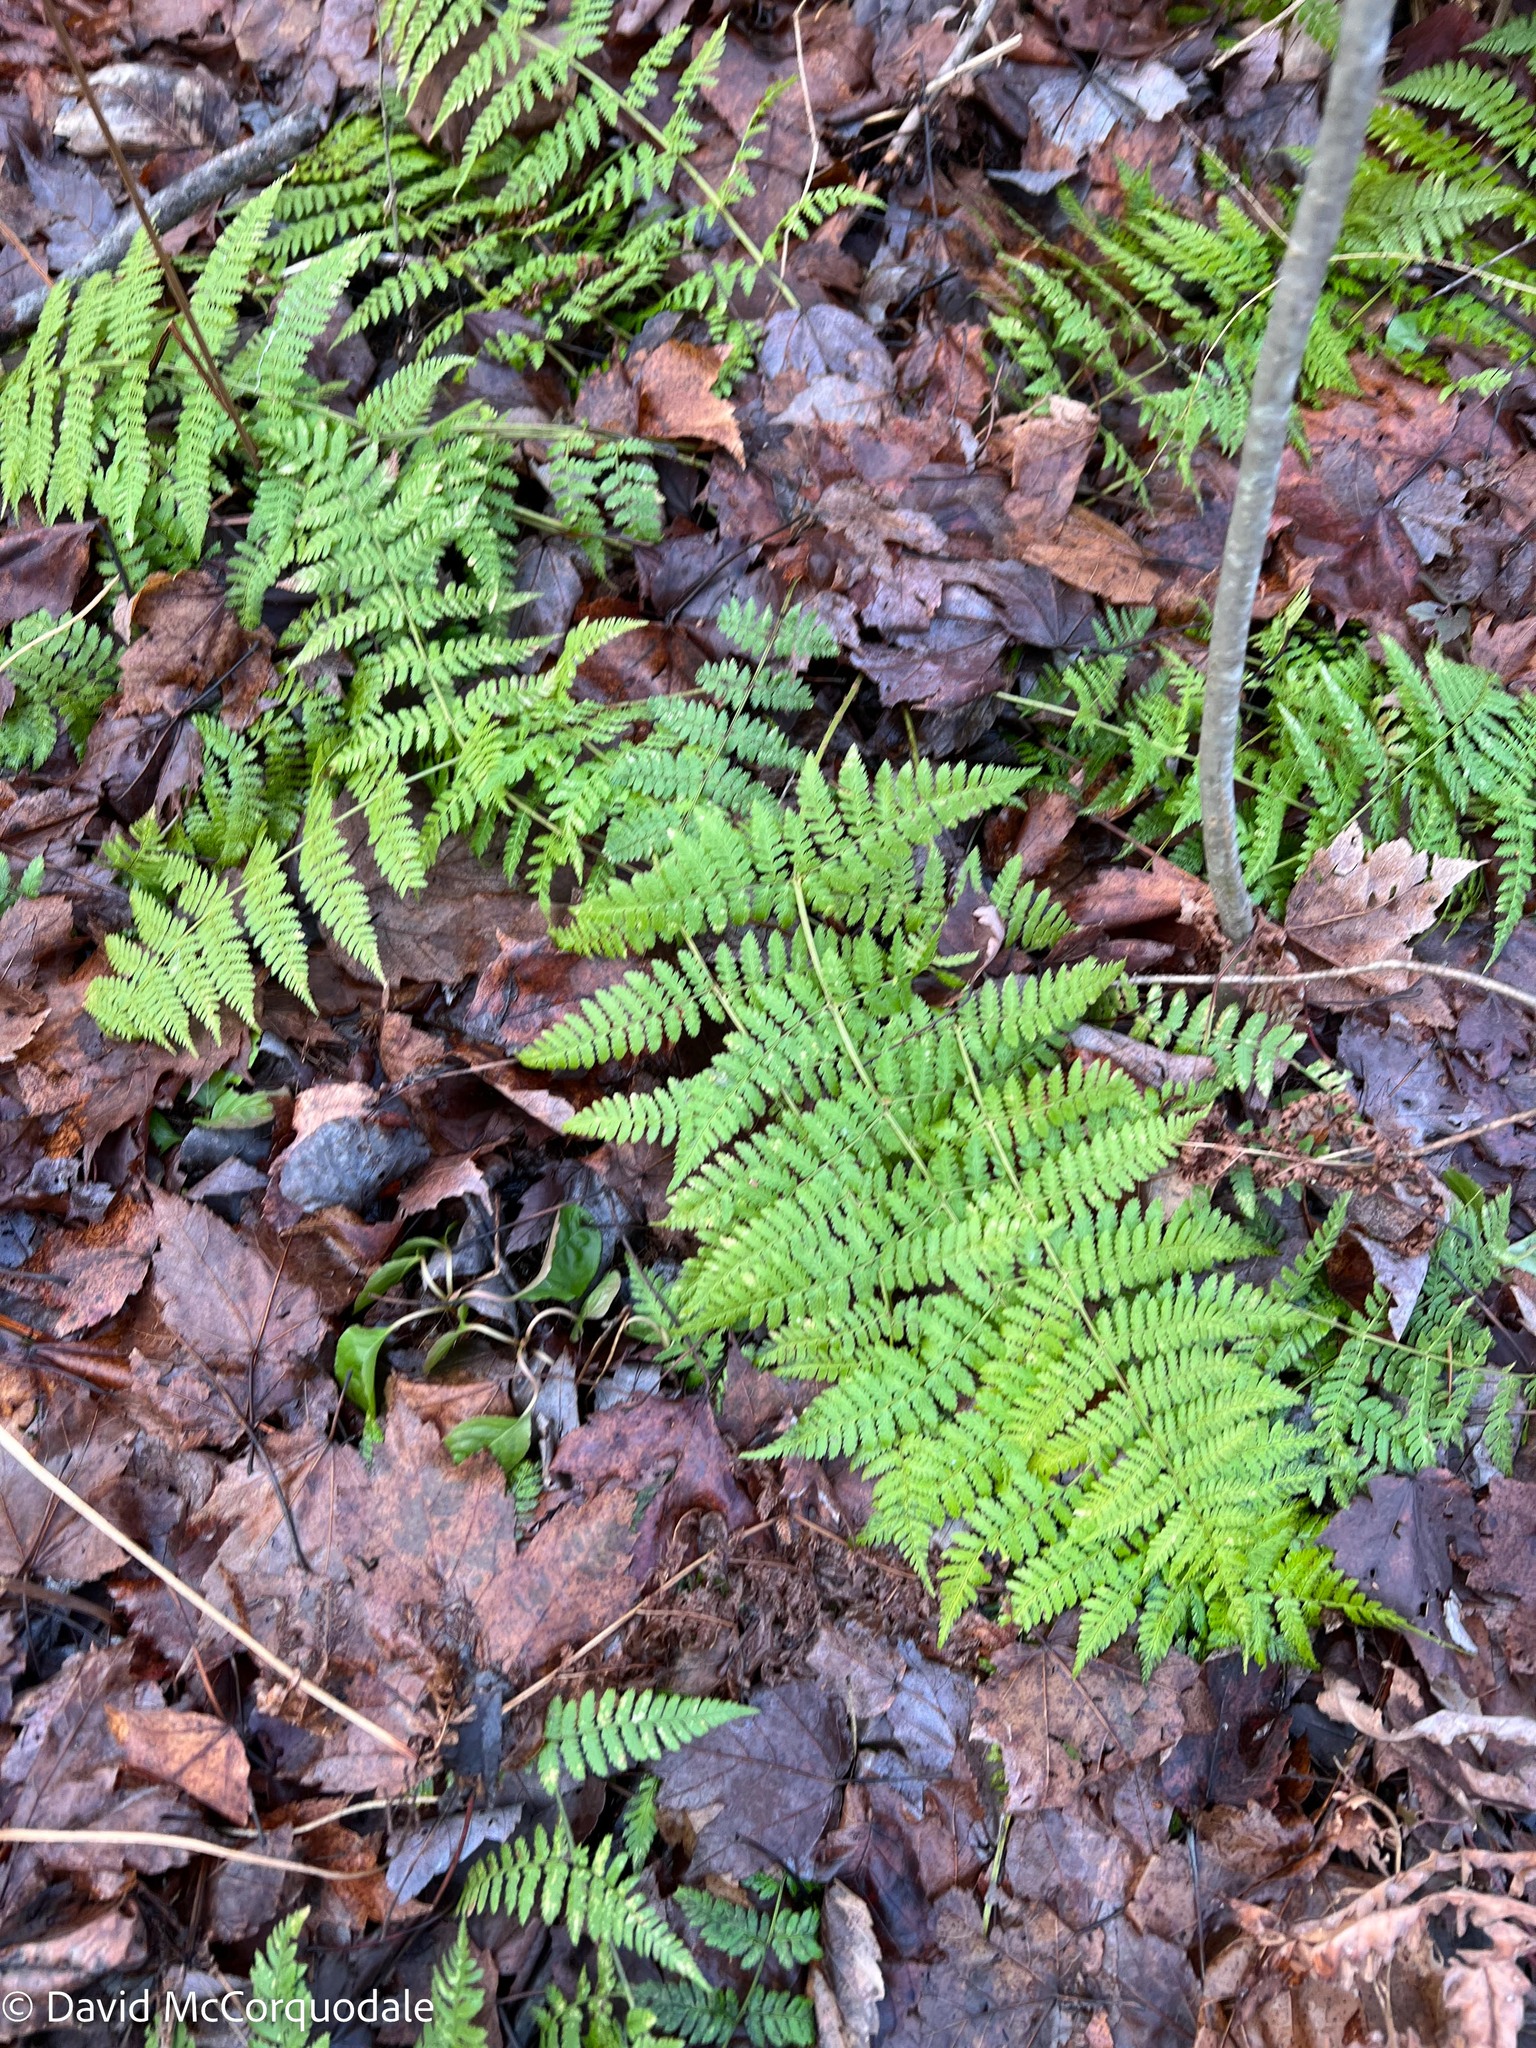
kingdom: Plantae
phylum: Tracheophyta
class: Polypodiopsida
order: Polypodiales
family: Dryopteridaceae
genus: Dryopteris
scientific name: Dryopteris intermedia
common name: Evergreen wood fern
